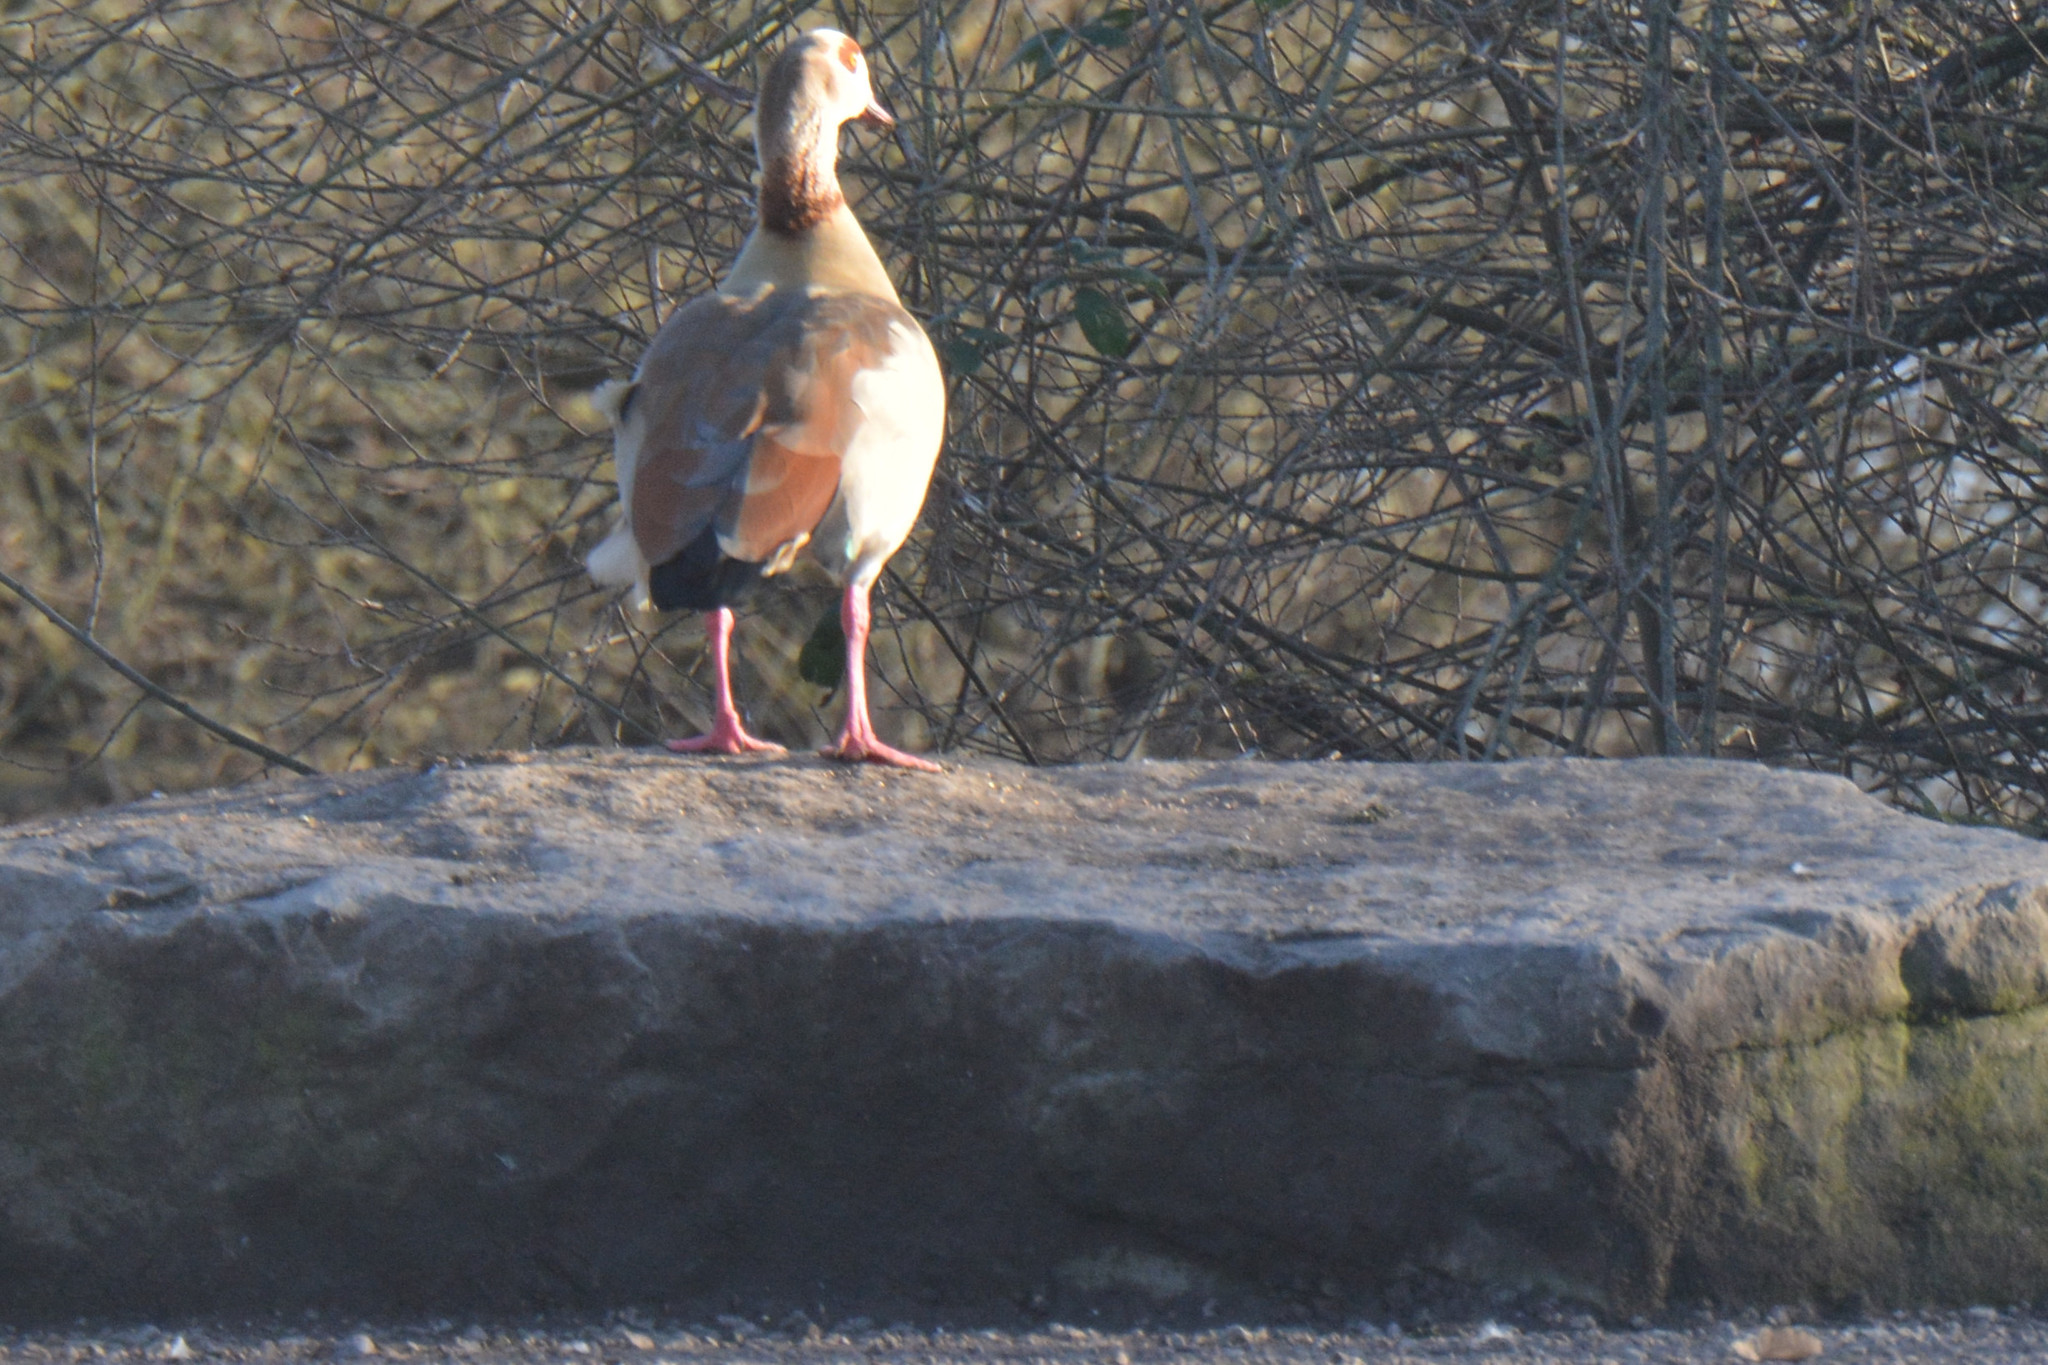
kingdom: Animalia
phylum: Chordata
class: Aves
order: Anseriformes
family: Anatidae
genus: Alopochen
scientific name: Alopochen aegyptiaca
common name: Egyptian goose
